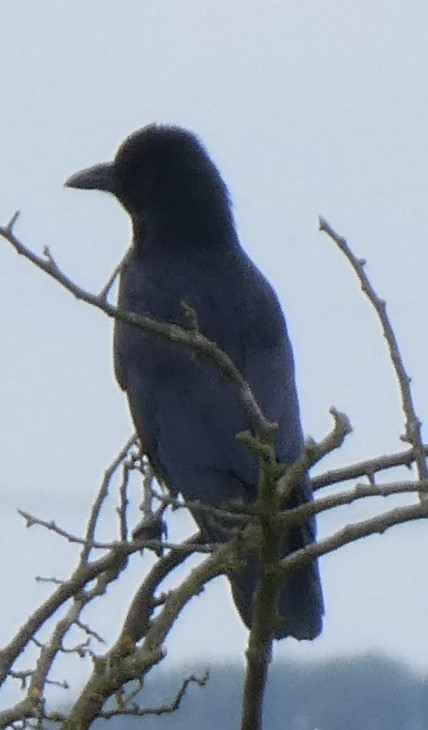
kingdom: Animalia
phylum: Chordata
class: Aves
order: Passeriformes
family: Corvidae
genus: Corvus
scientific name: Corvus corone
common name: Carrion crow
